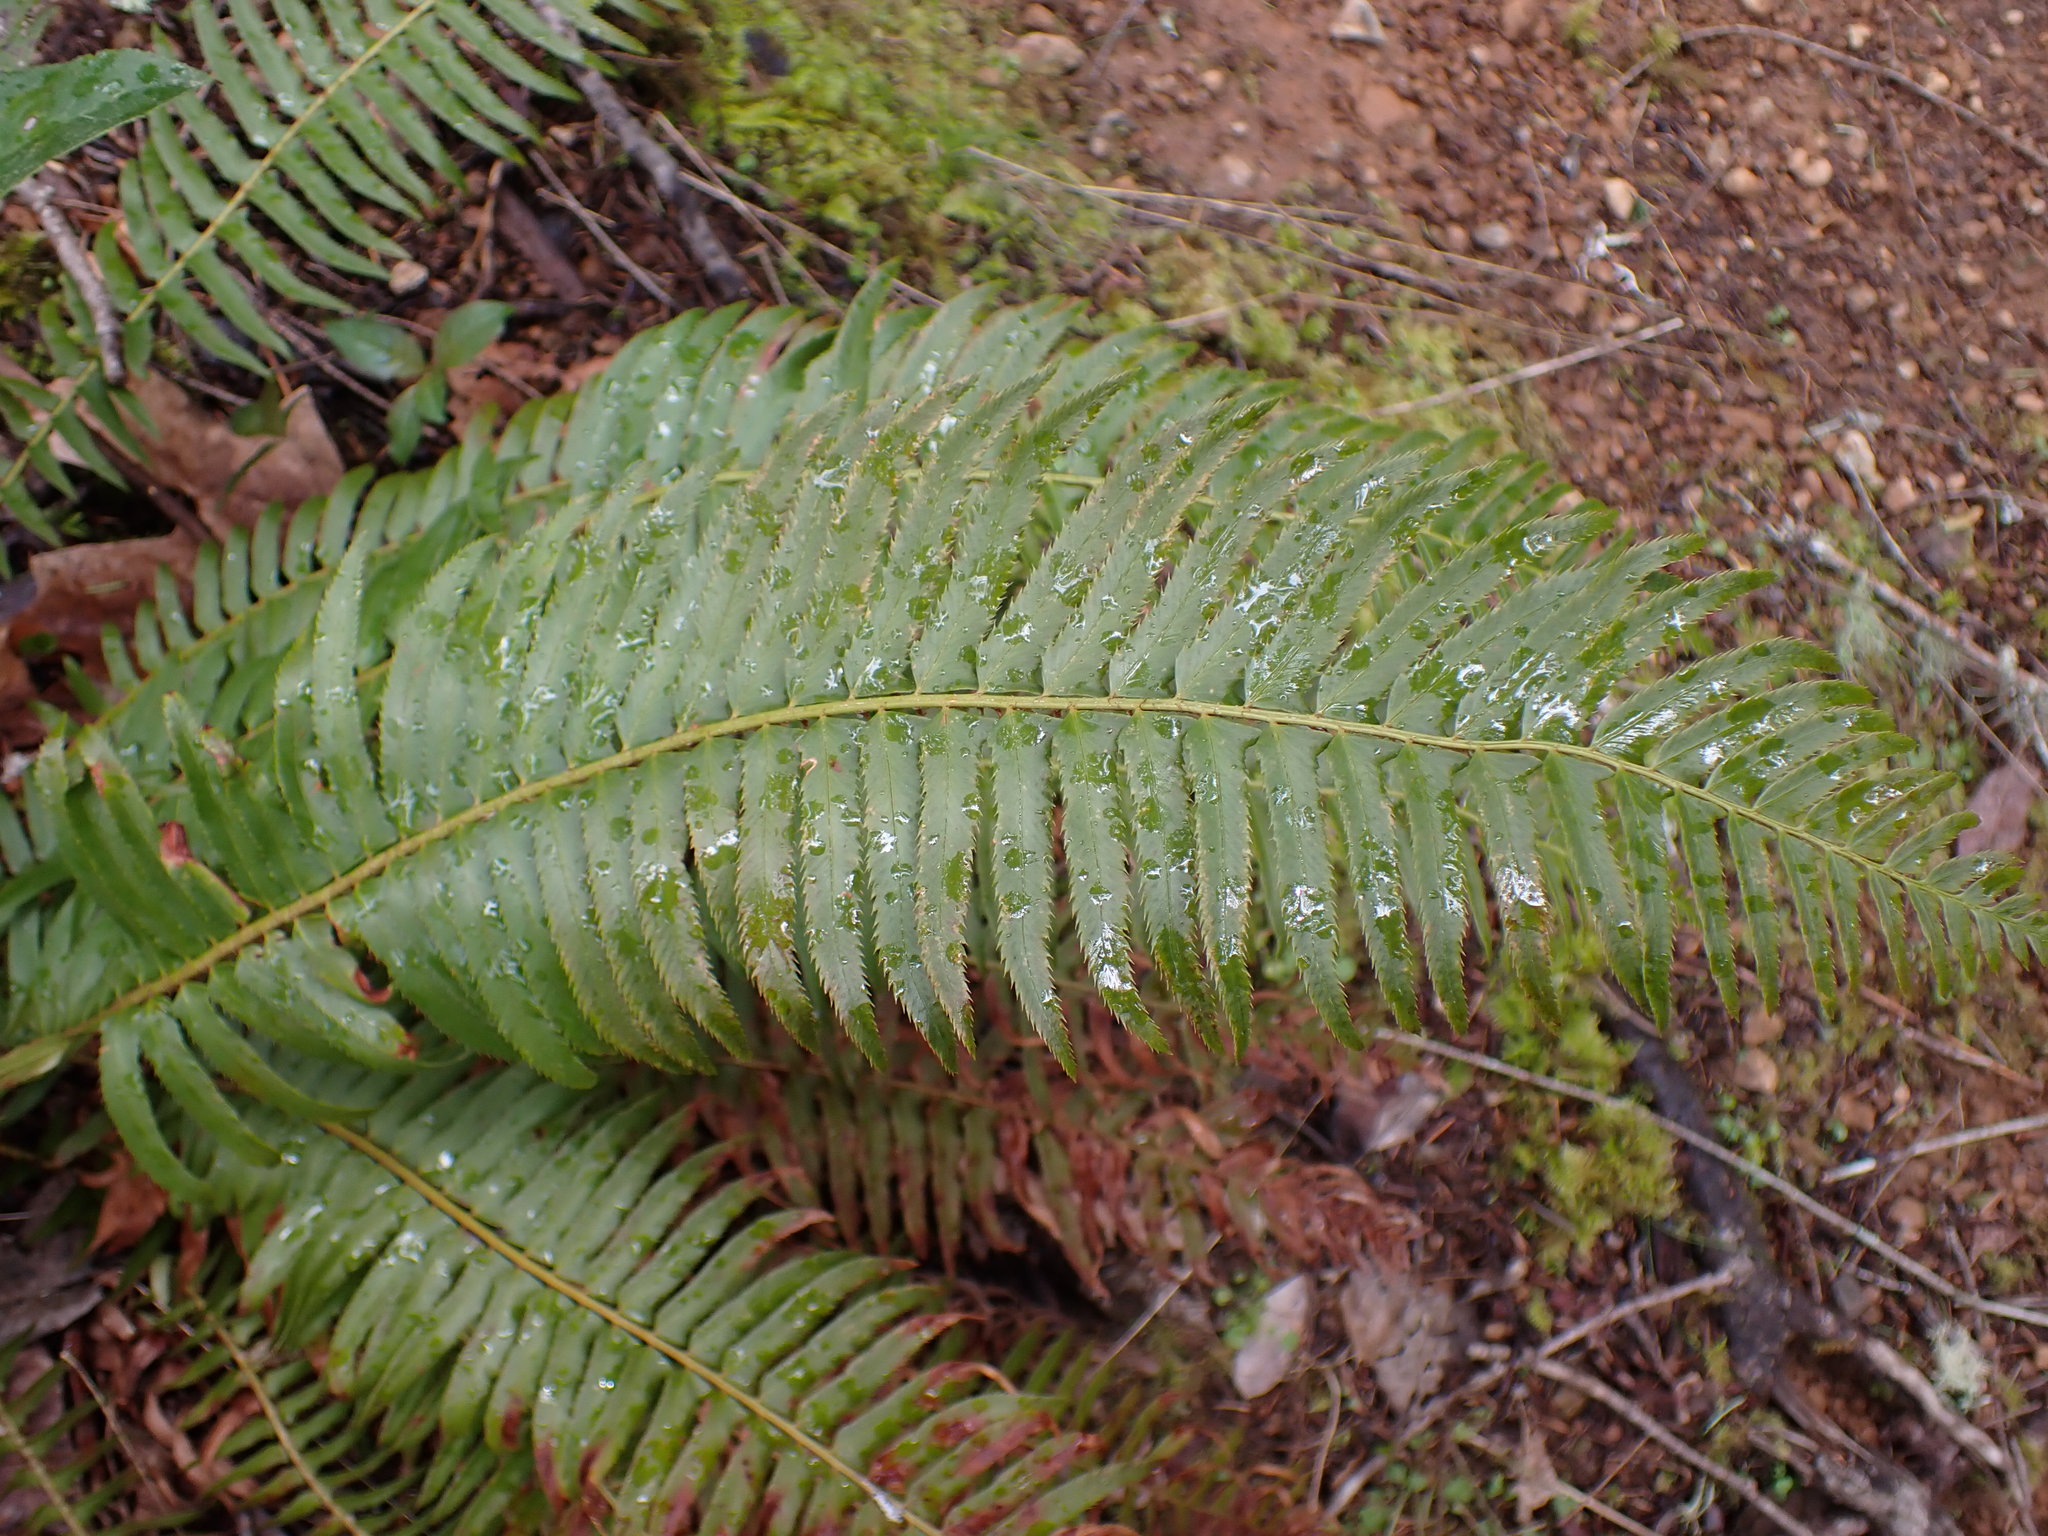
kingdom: Plantae
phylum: Tracheophyta
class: Polypodiopsida
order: Polypodiales
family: Dryopteridaceae
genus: Polystichum
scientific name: Polystichum munitum
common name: Western sword-fern
